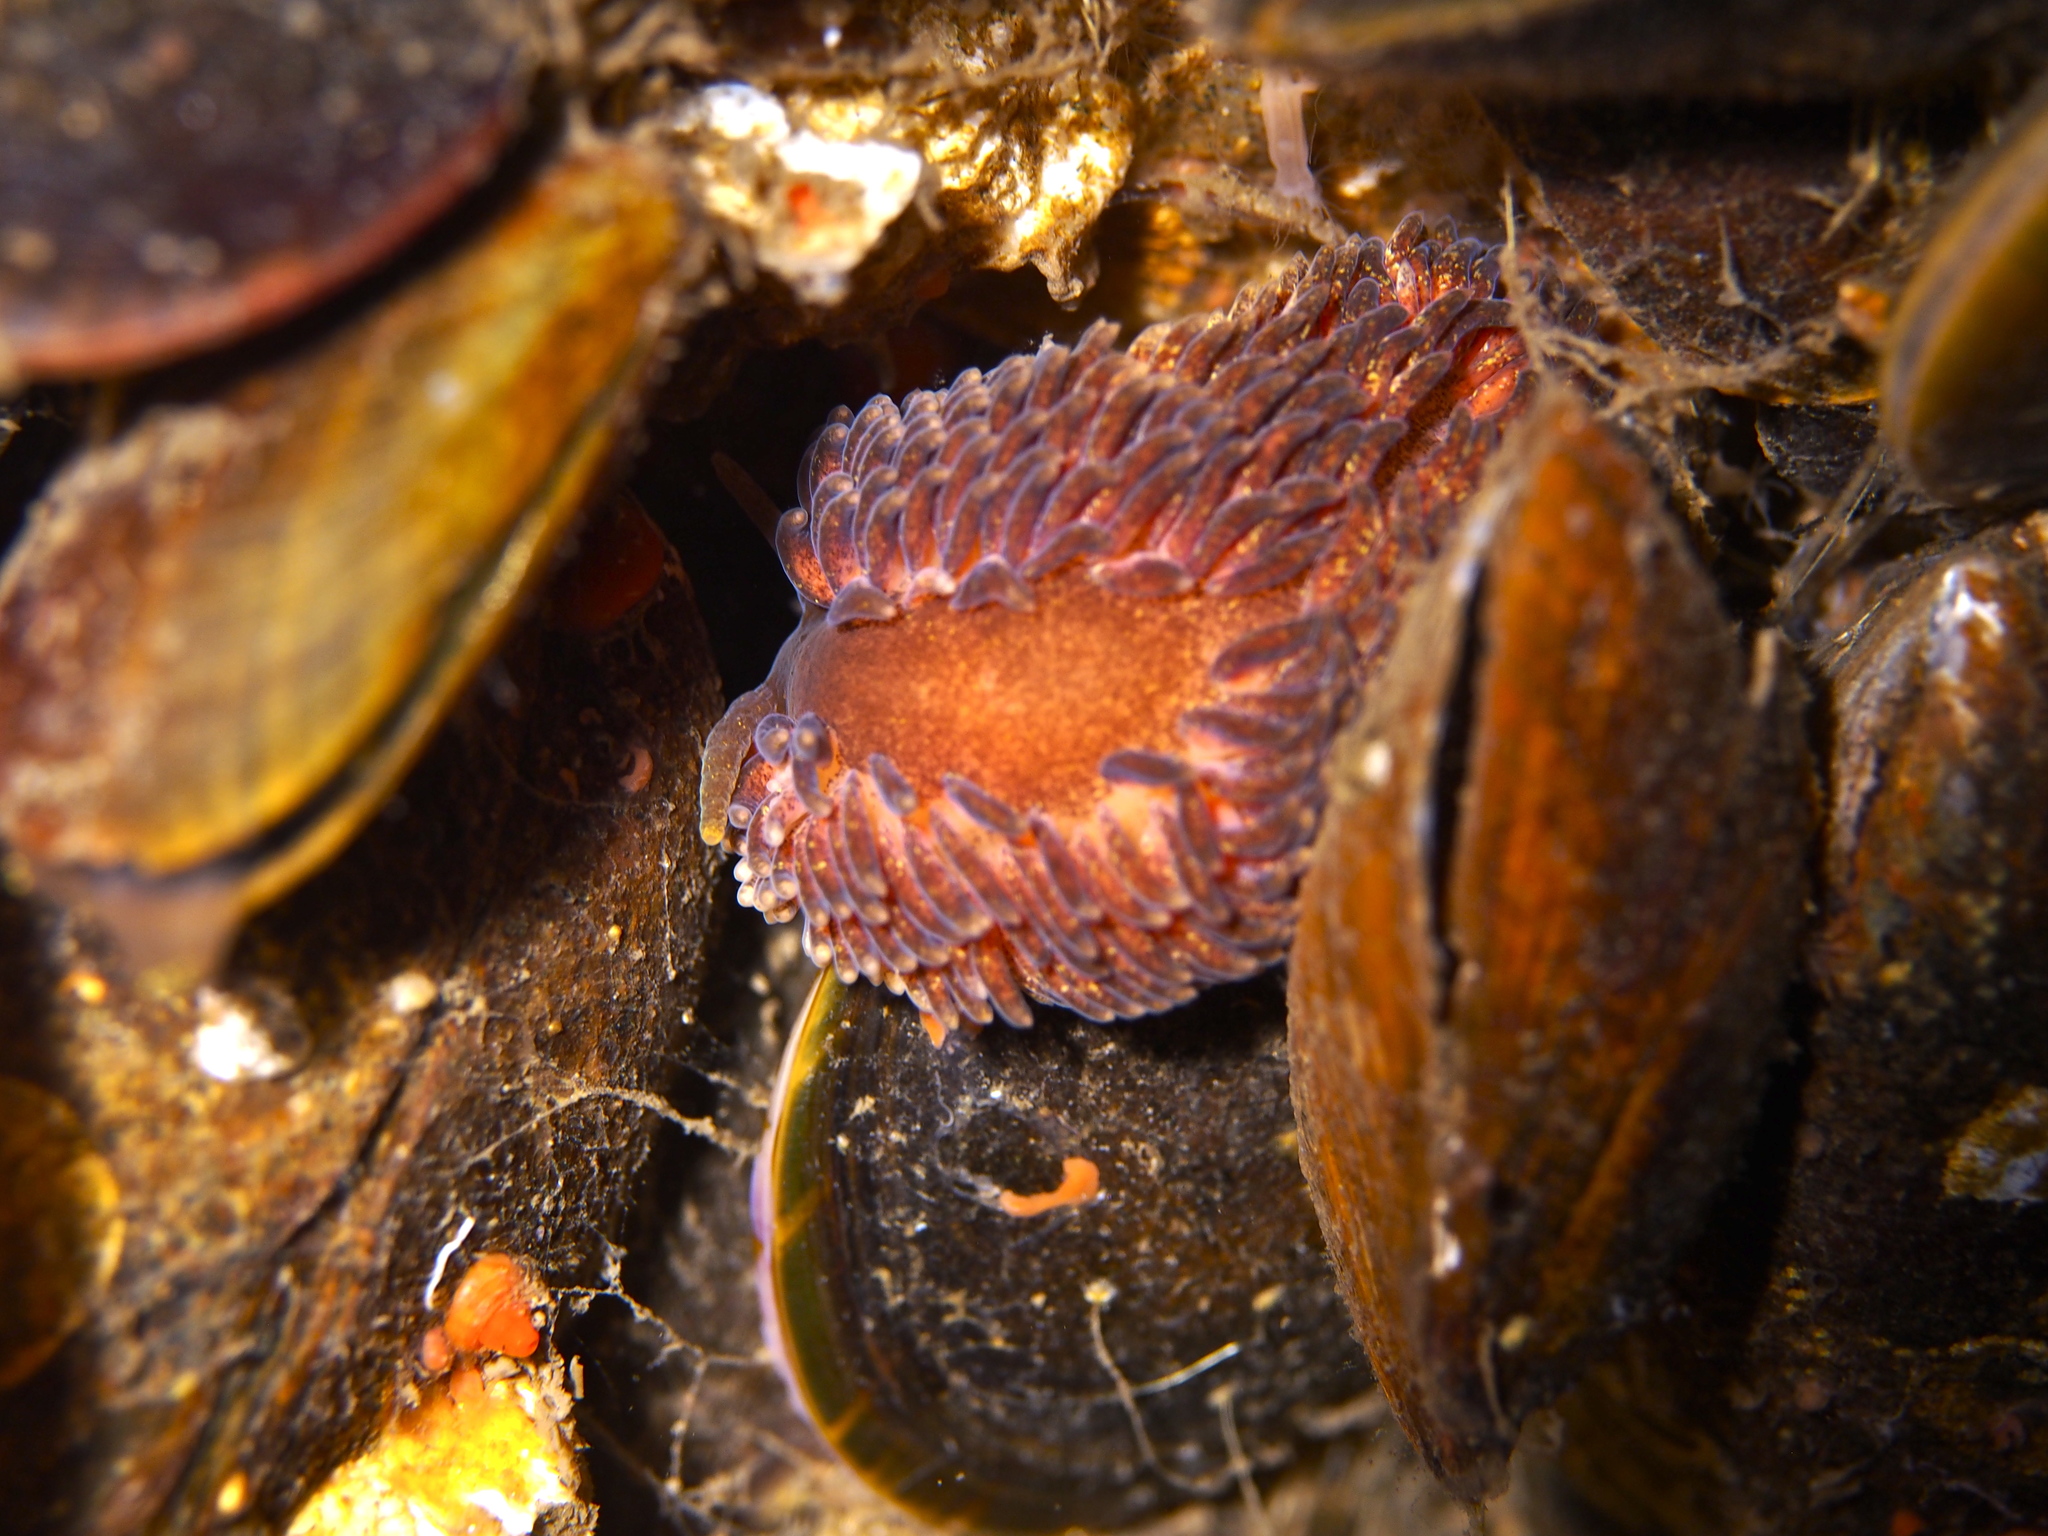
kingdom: Animalia
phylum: Mollusca
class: Gastropoda
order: Nudibranchia
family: Aeolidiidae
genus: Aeolidia
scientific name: Aeolidia papillosa
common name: Common grey sea slug
